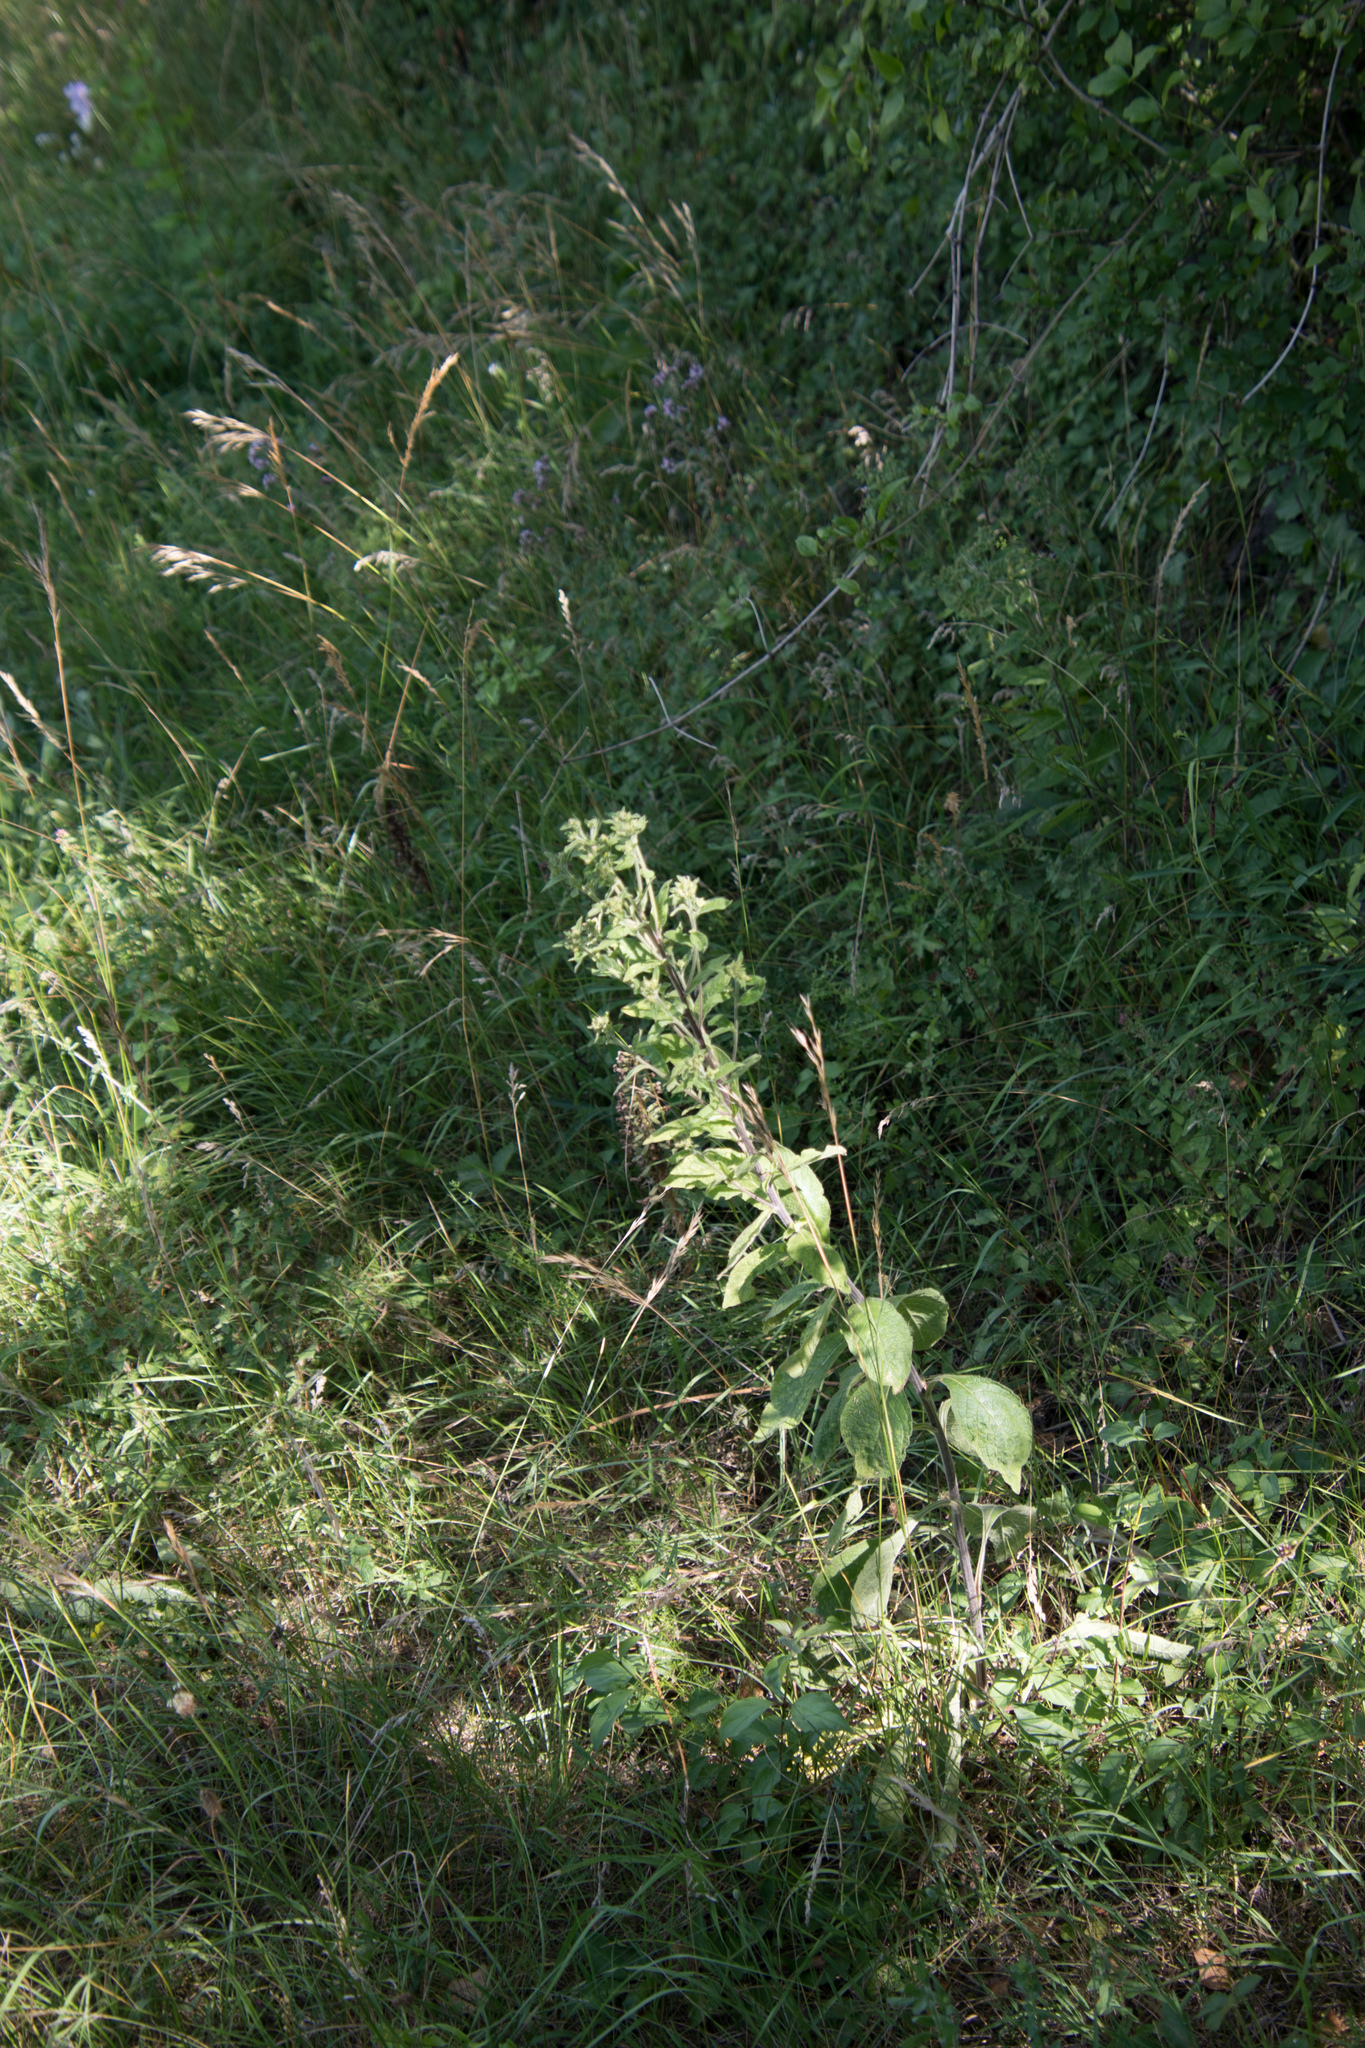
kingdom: Plantae
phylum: Tracheophyta
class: Magnoliopsida
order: Asterales
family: Asteraceae
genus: Pentanema
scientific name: Pentanema squarrosum
